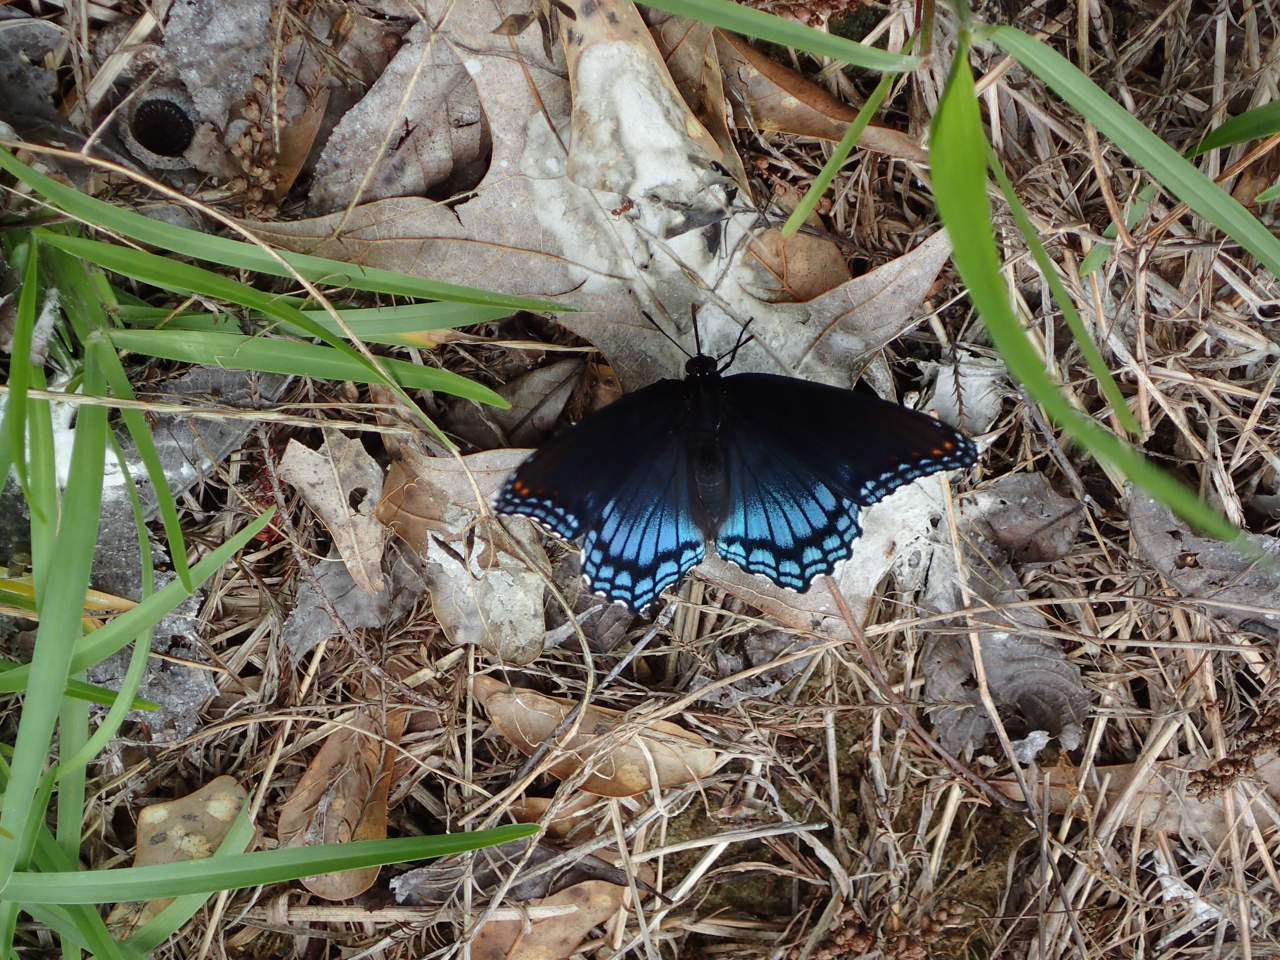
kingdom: Animalia
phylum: Arthropoda
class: Insecta
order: Lepidoptera
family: Nymphalidae
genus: Limenitis
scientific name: Limenitis astyanax
